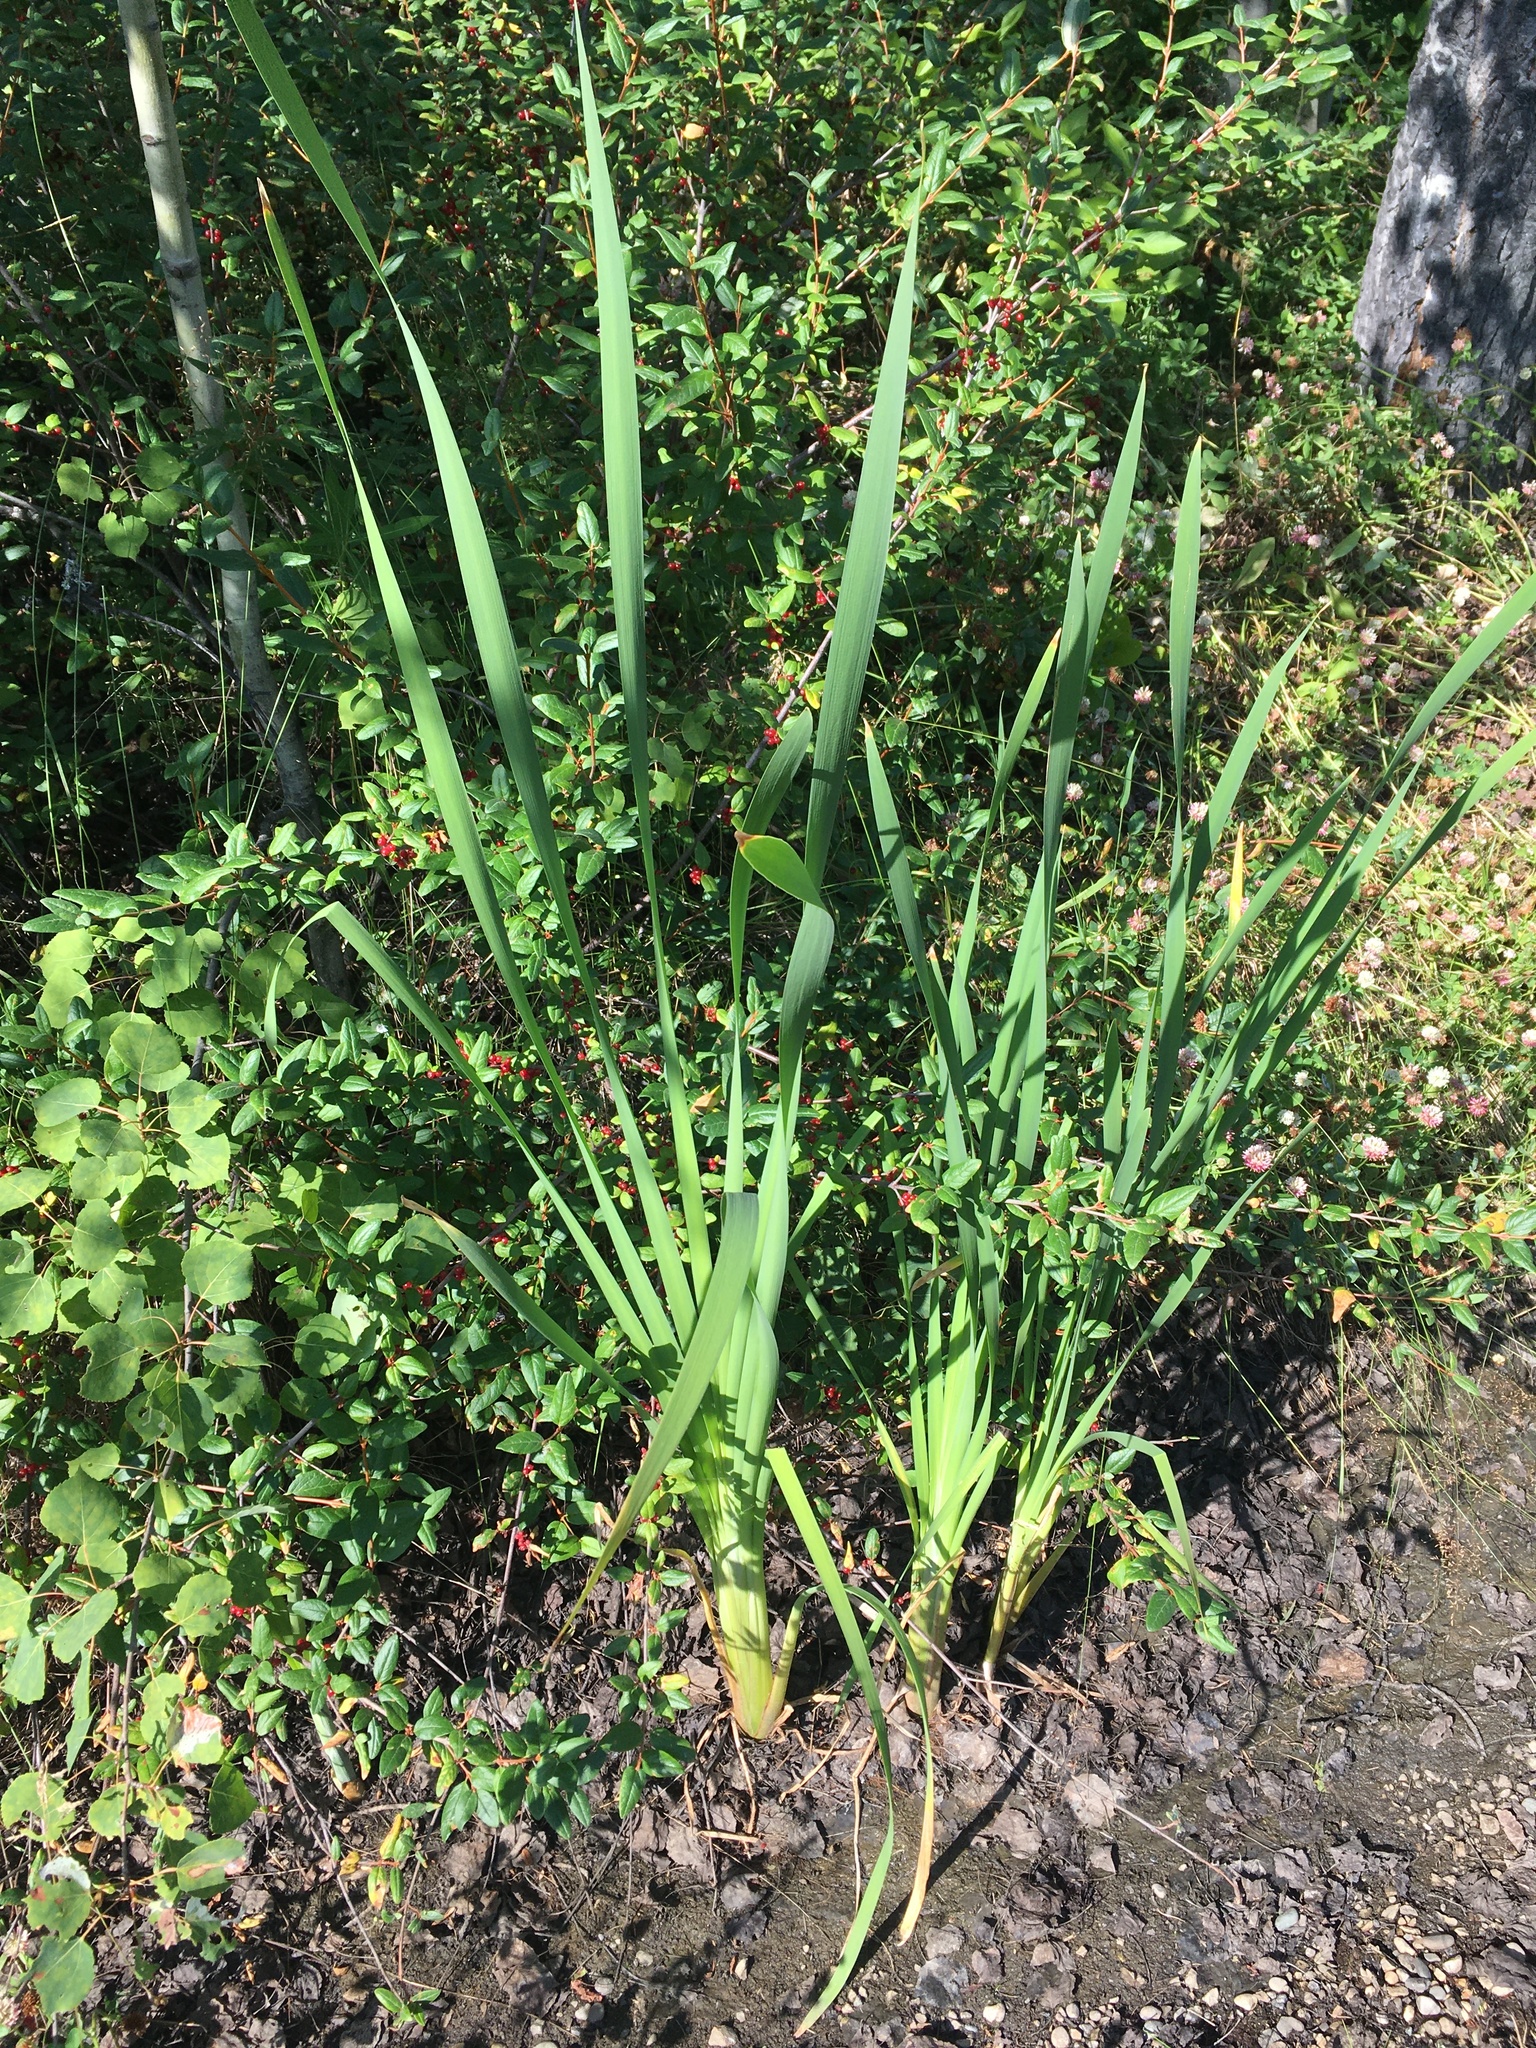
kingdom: Plantae
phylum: Tracheophyta
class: Liliopsida
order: Poales
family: Typhaceae
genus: Typha
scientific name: Typha latifolia
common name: Broadleaf cattail
